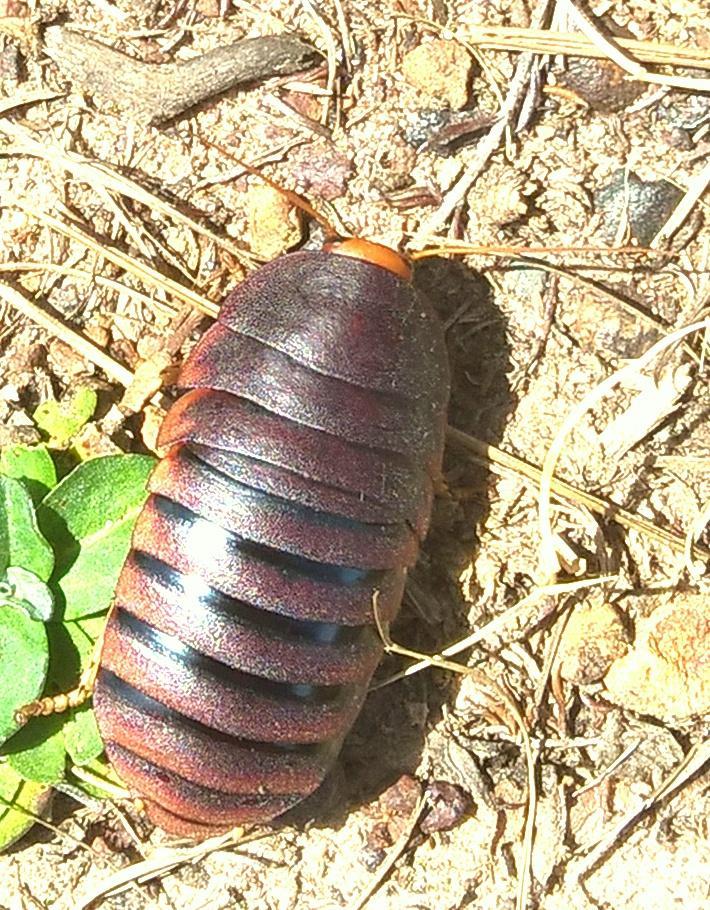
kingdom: Animalia
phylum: Arthropoda
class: Insecta
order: Blattodea
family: Blaberidae
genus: Aptera
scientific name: Aptera fusca
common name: Cape mountain cockroach
